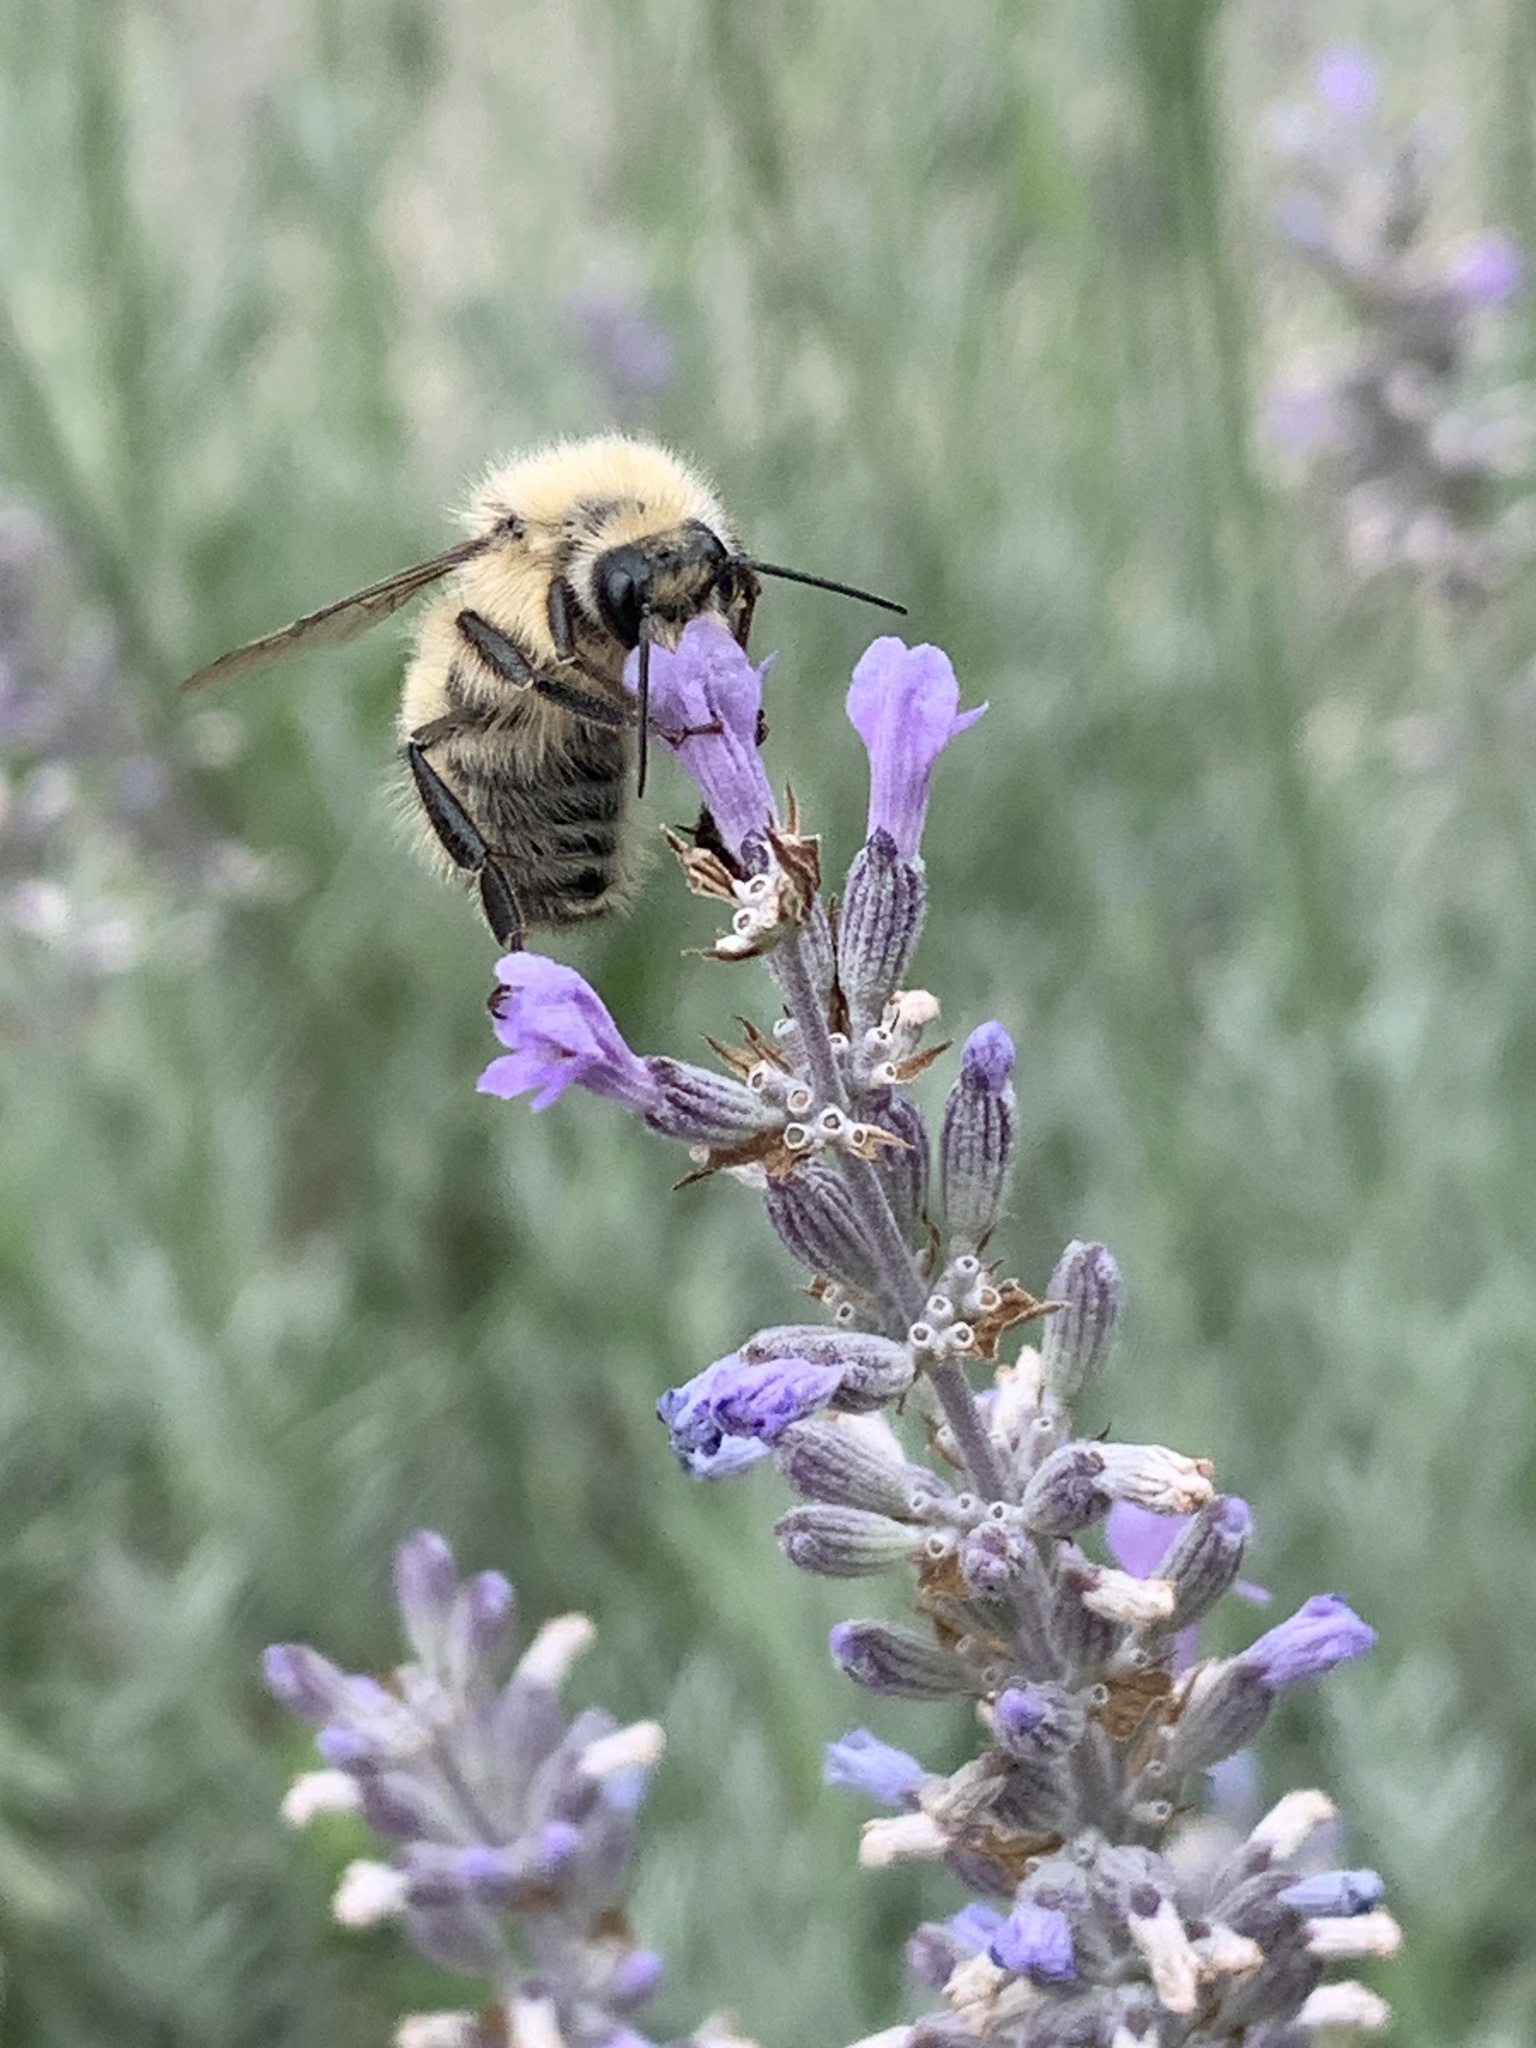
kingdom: Animalia
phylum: Arthropoda
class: Insecta
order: Hymenoptera
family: Apidae
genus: Bombus
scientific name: Bombus flavifrons
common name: Yellow head bumble bee
